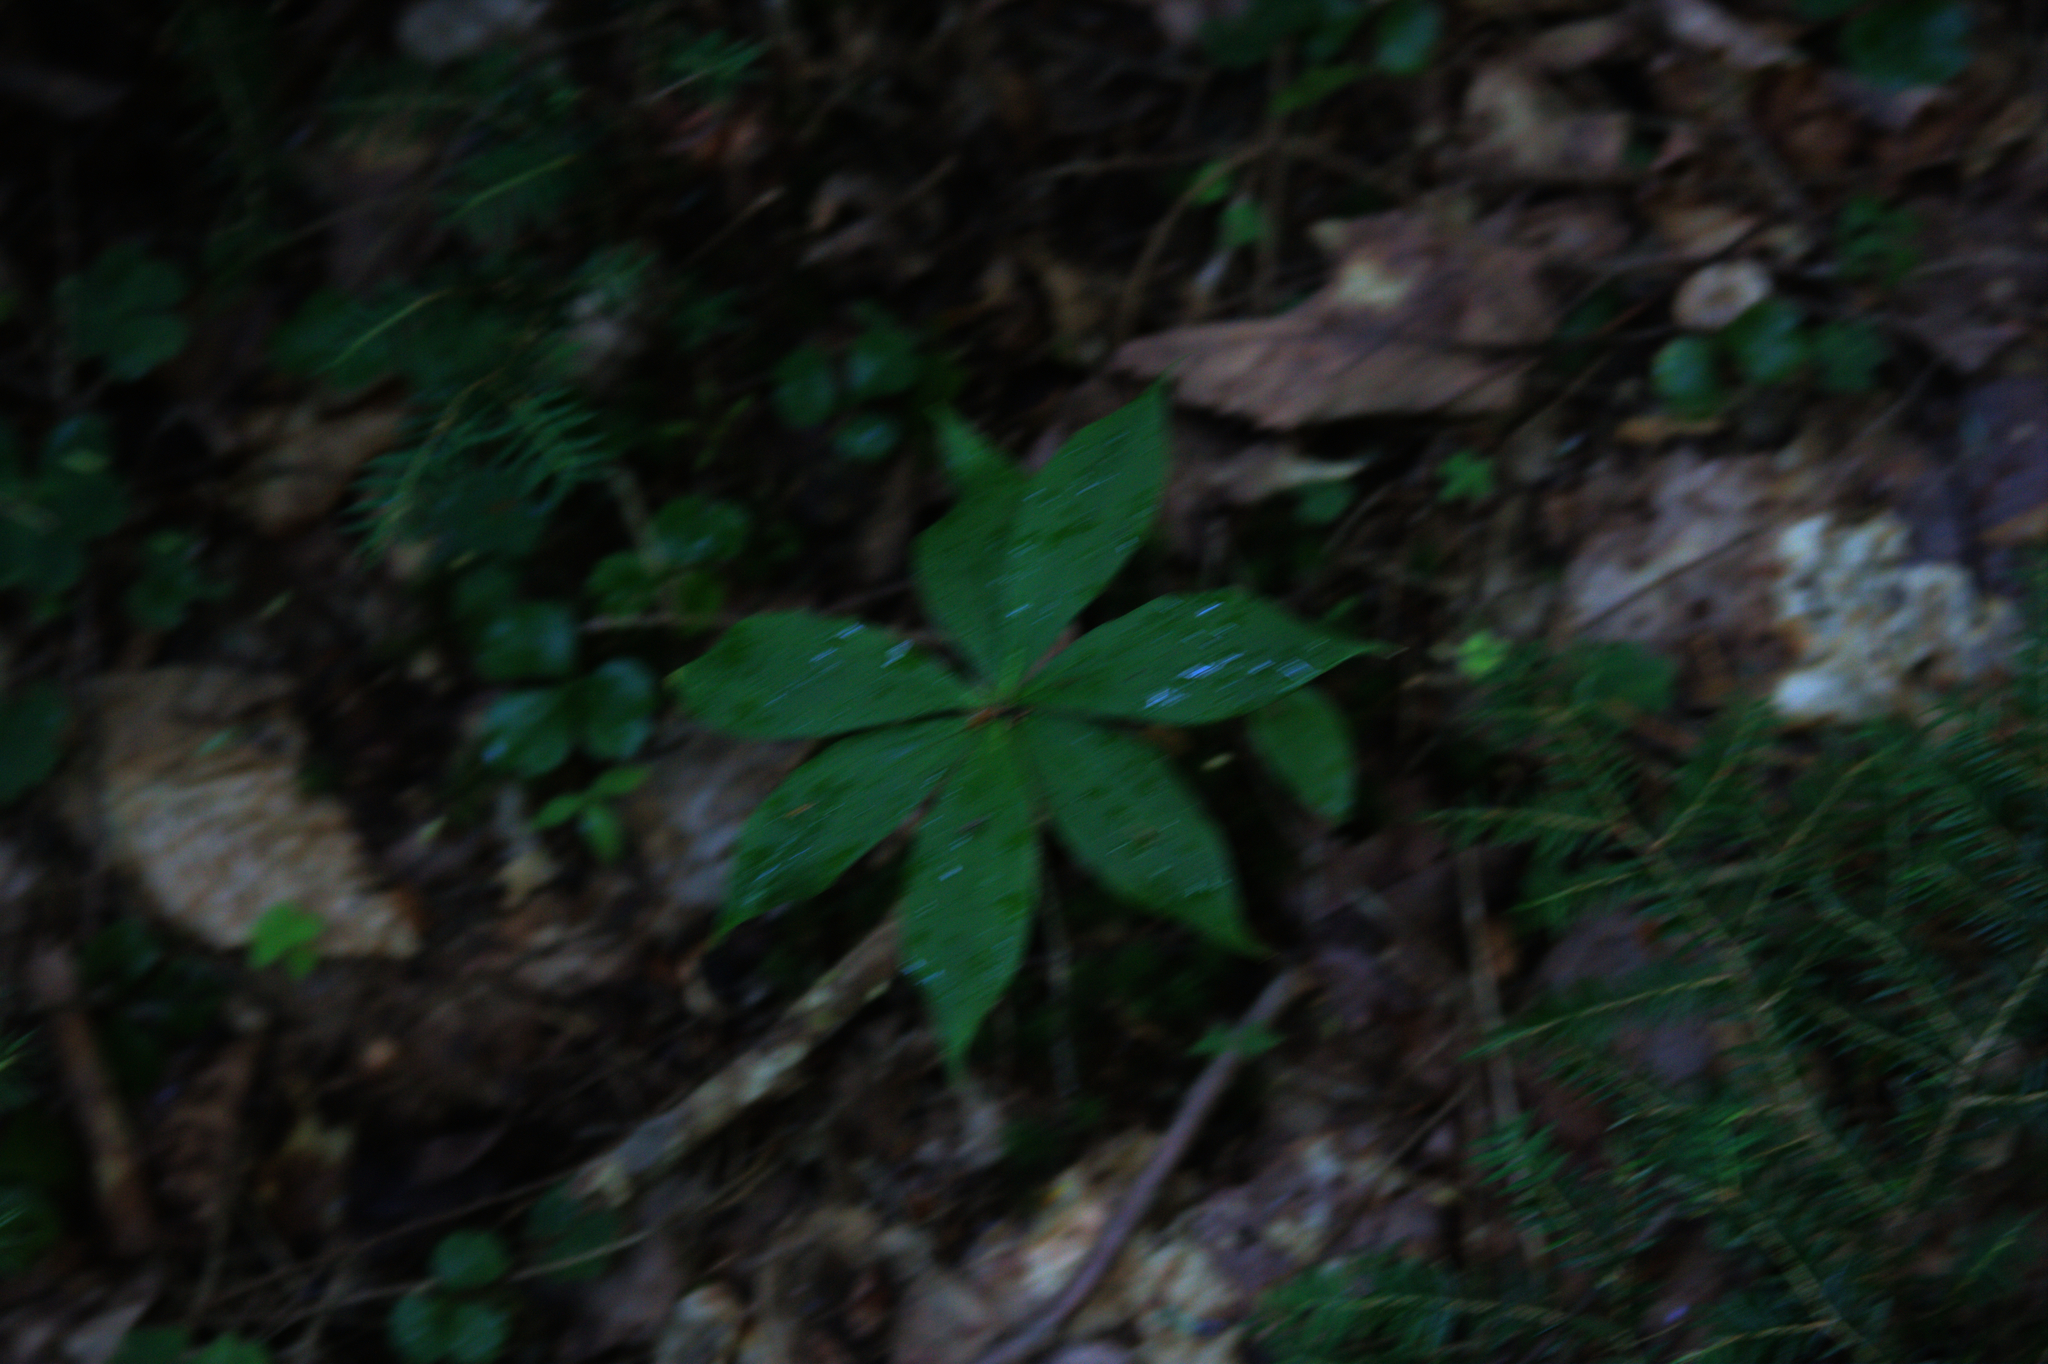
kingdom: Plantae
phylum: Tracheophyta
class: Liliopsida
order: Liliales
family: Liliaceae
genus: Medeola
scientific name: Medeola virginiana
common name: Indian cucumber-root
